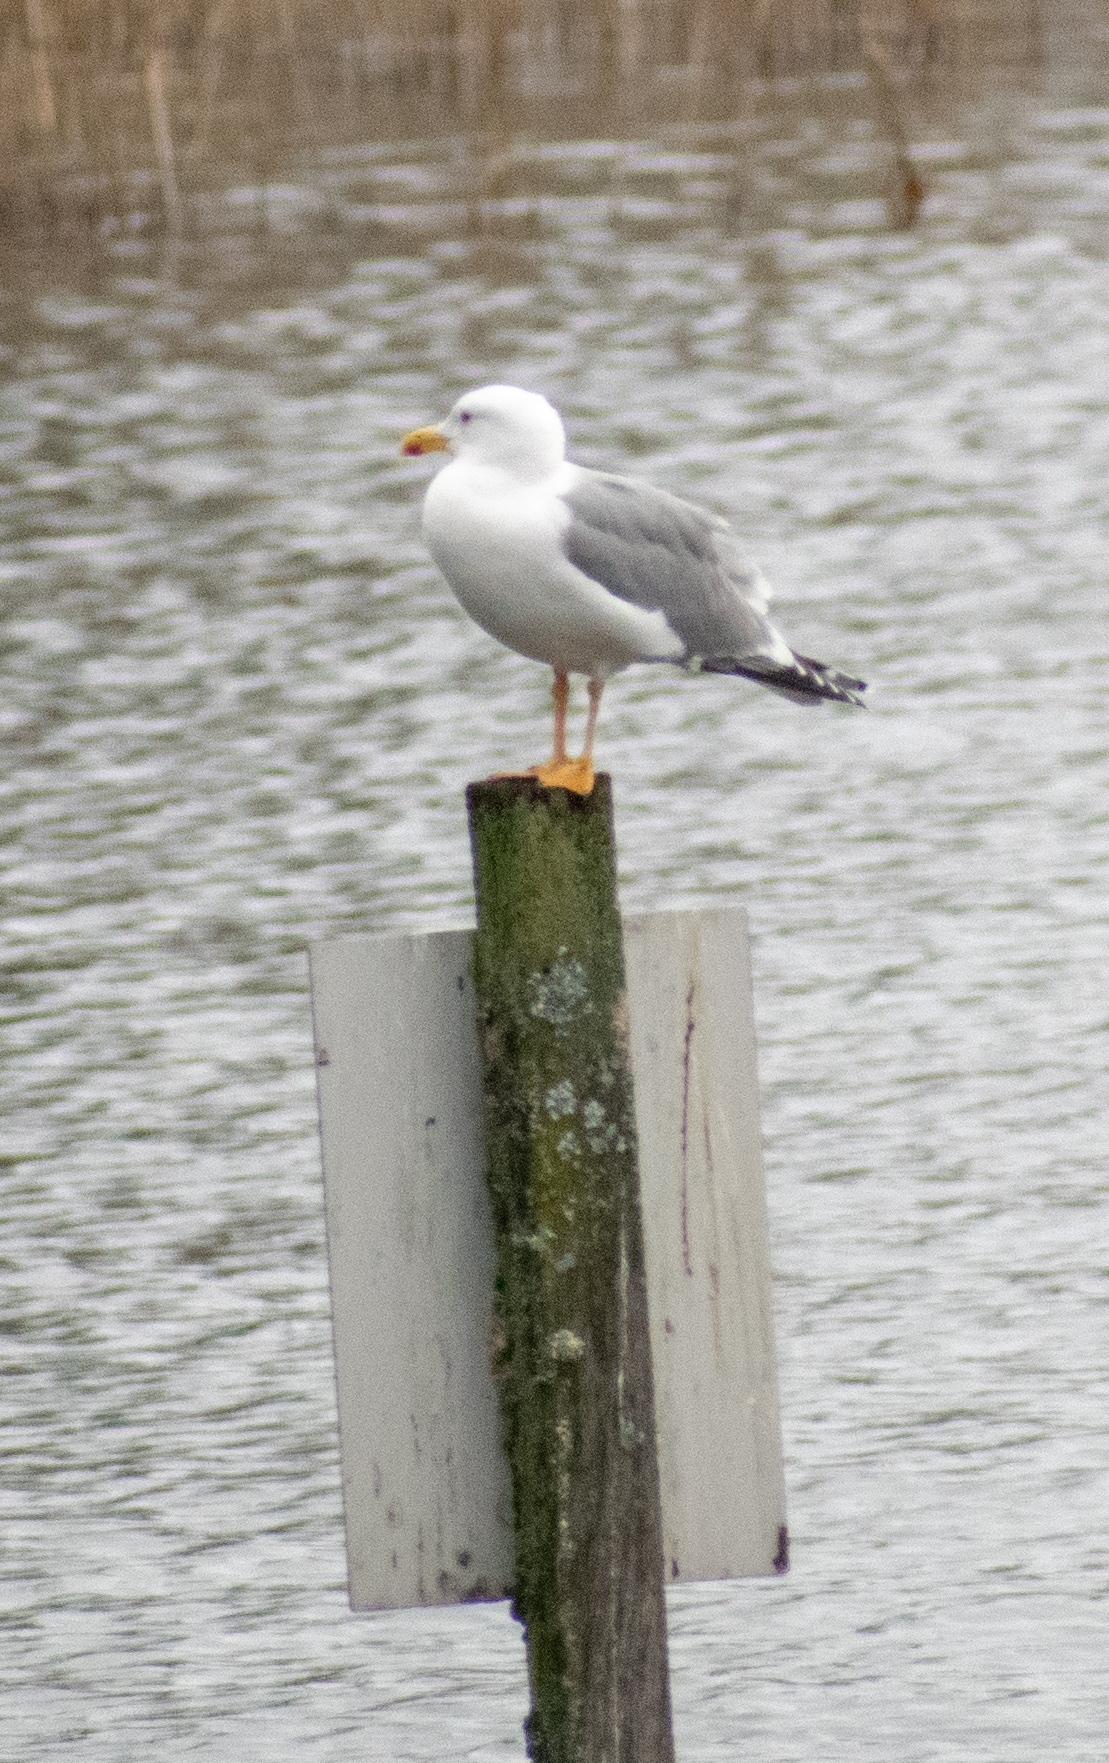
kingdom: Animalia
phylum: Chordata
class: Aves
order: Charadriiformes
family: Laridae
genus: Larus
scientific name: Larus michahellis
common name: Yellow-legged gull
